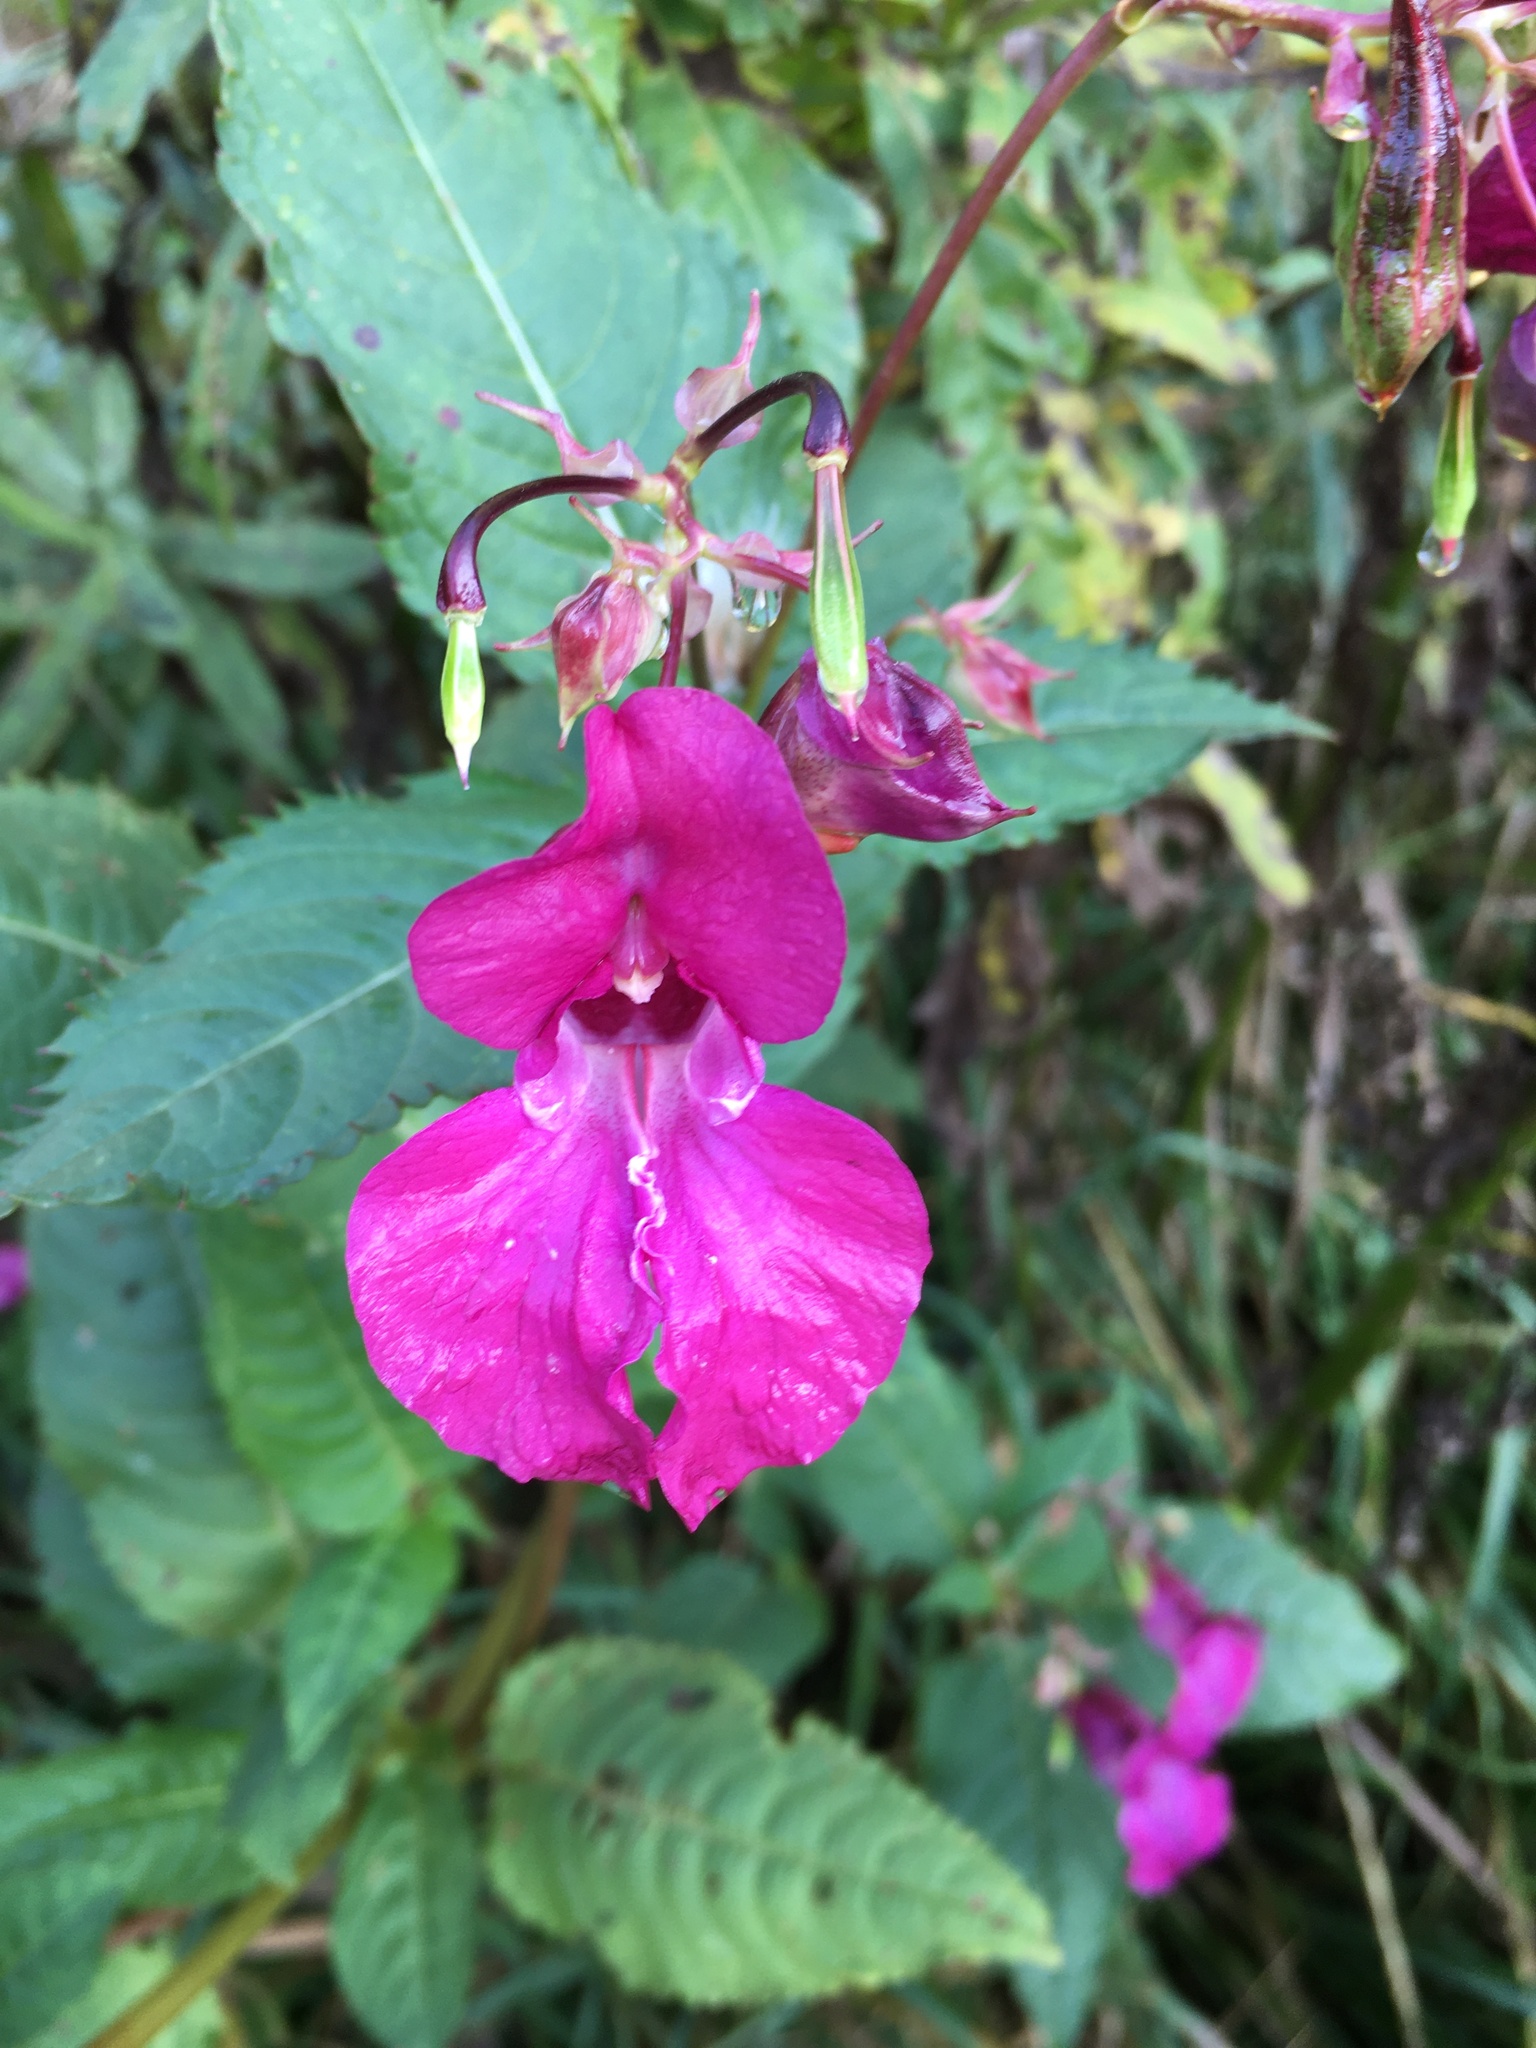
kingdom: Plantae
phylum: Tracheophyta
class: Magnoliopsida
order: Ericales
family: Balsaminaceae
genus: Impatiens
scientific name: Impatiens glandulifera
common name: Himalayan balsam
